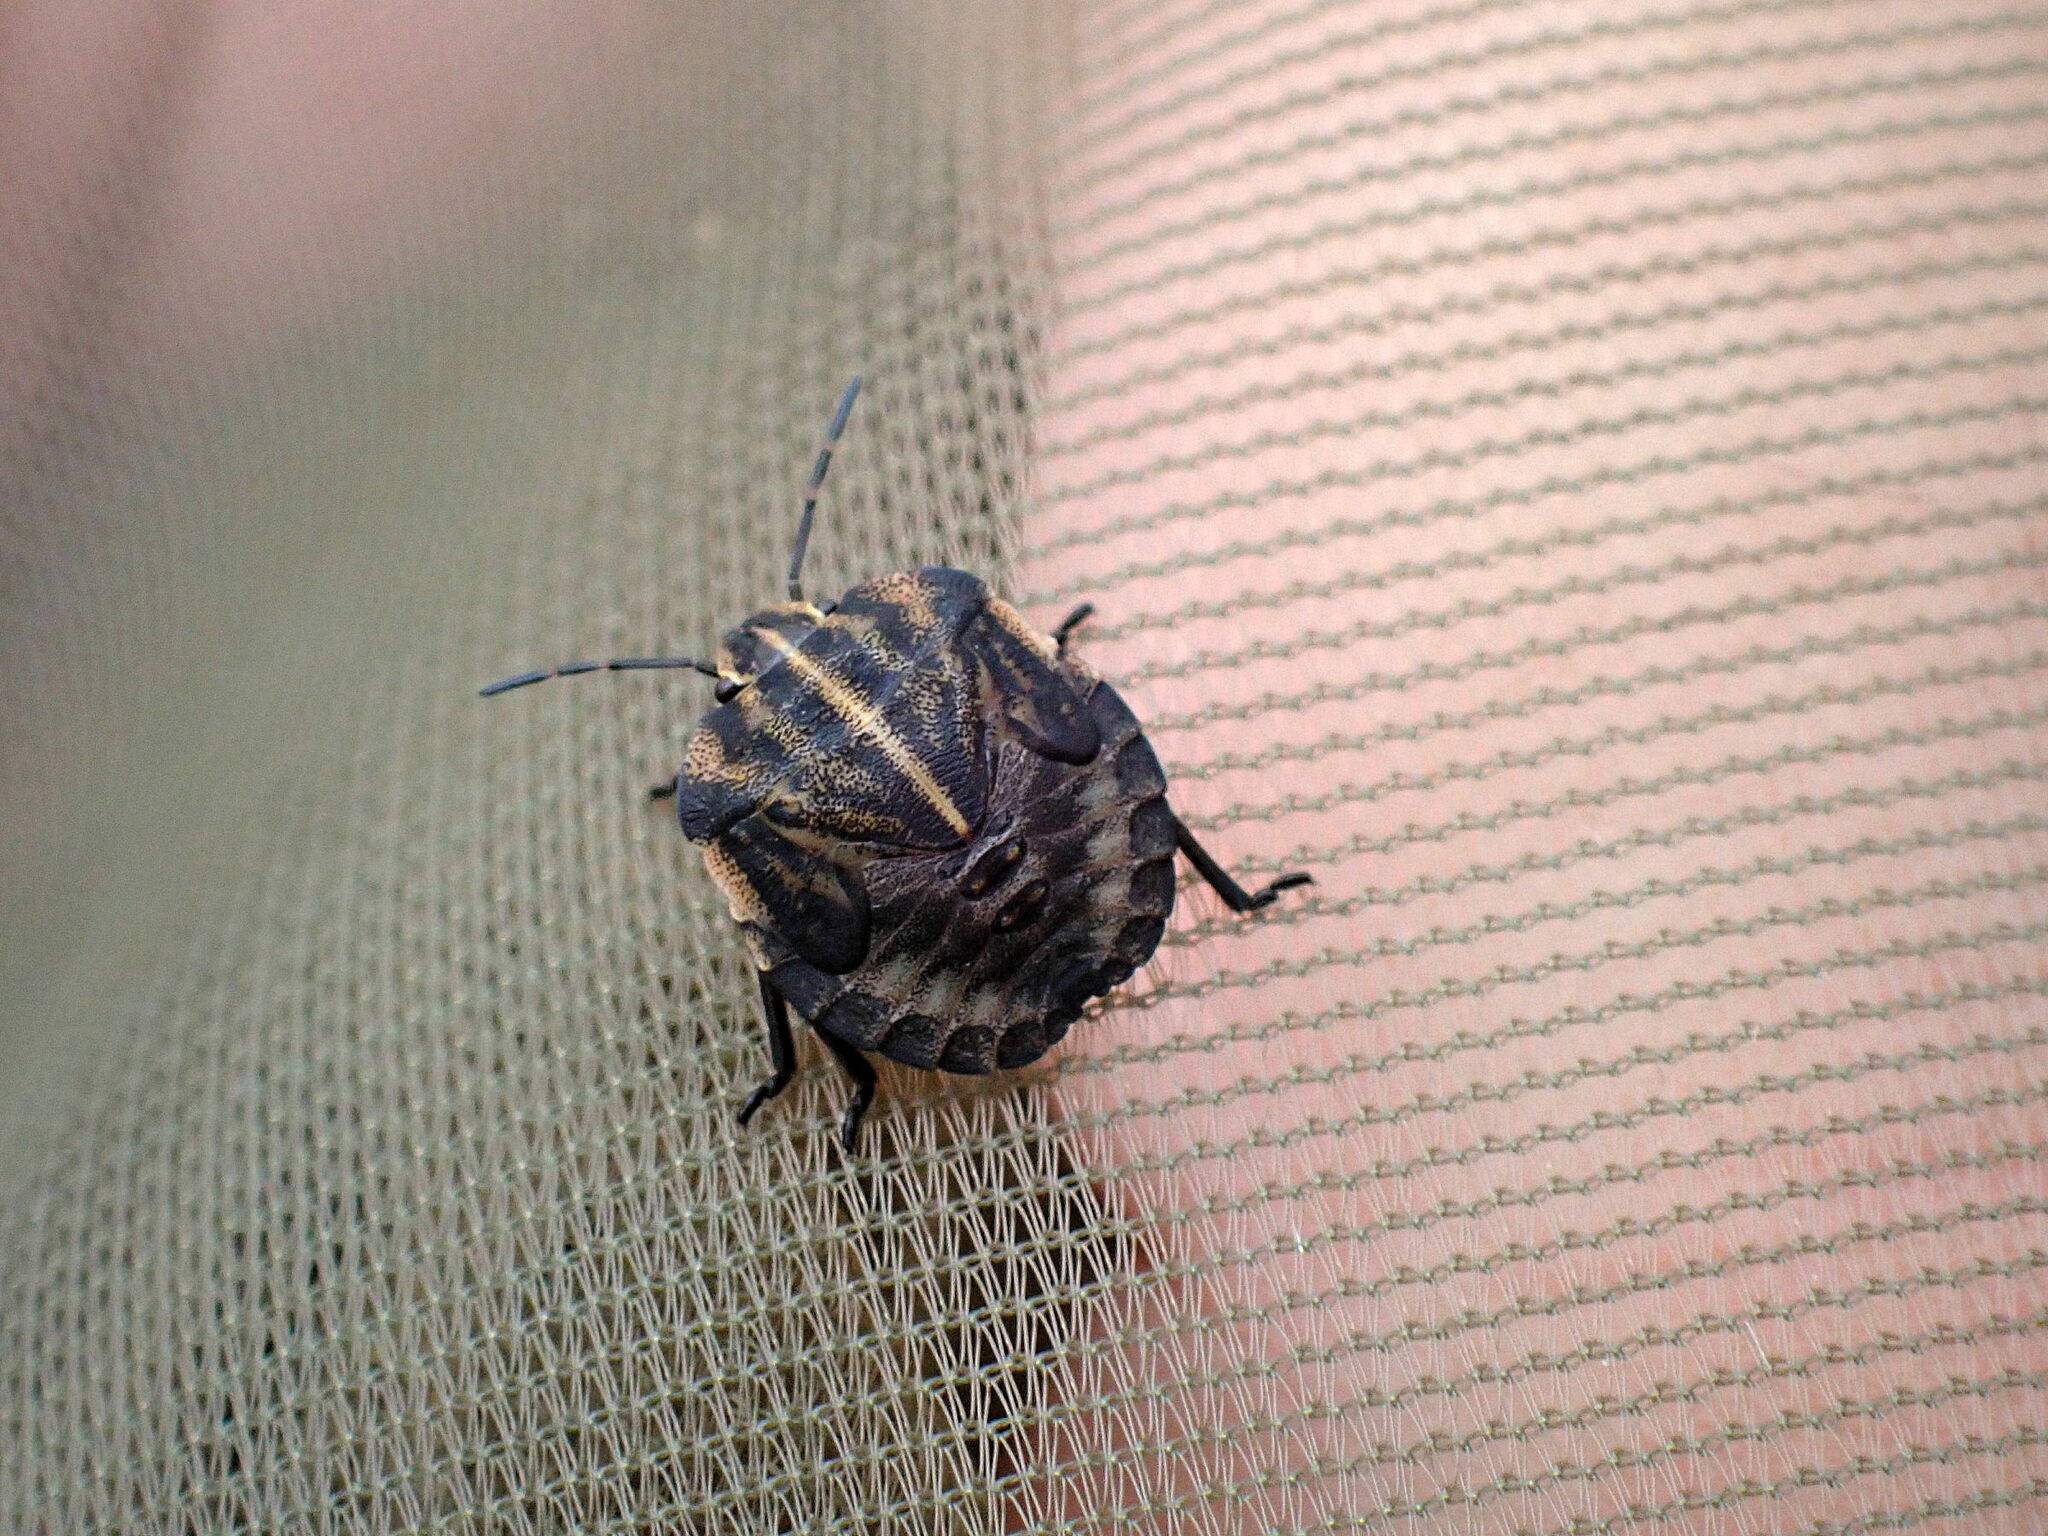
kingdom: Animalia
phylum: Arthropoda
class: Insecta
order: Hemiptera
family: Pentatomidae
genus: Graphosoma
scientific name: Graphosoma italicum
